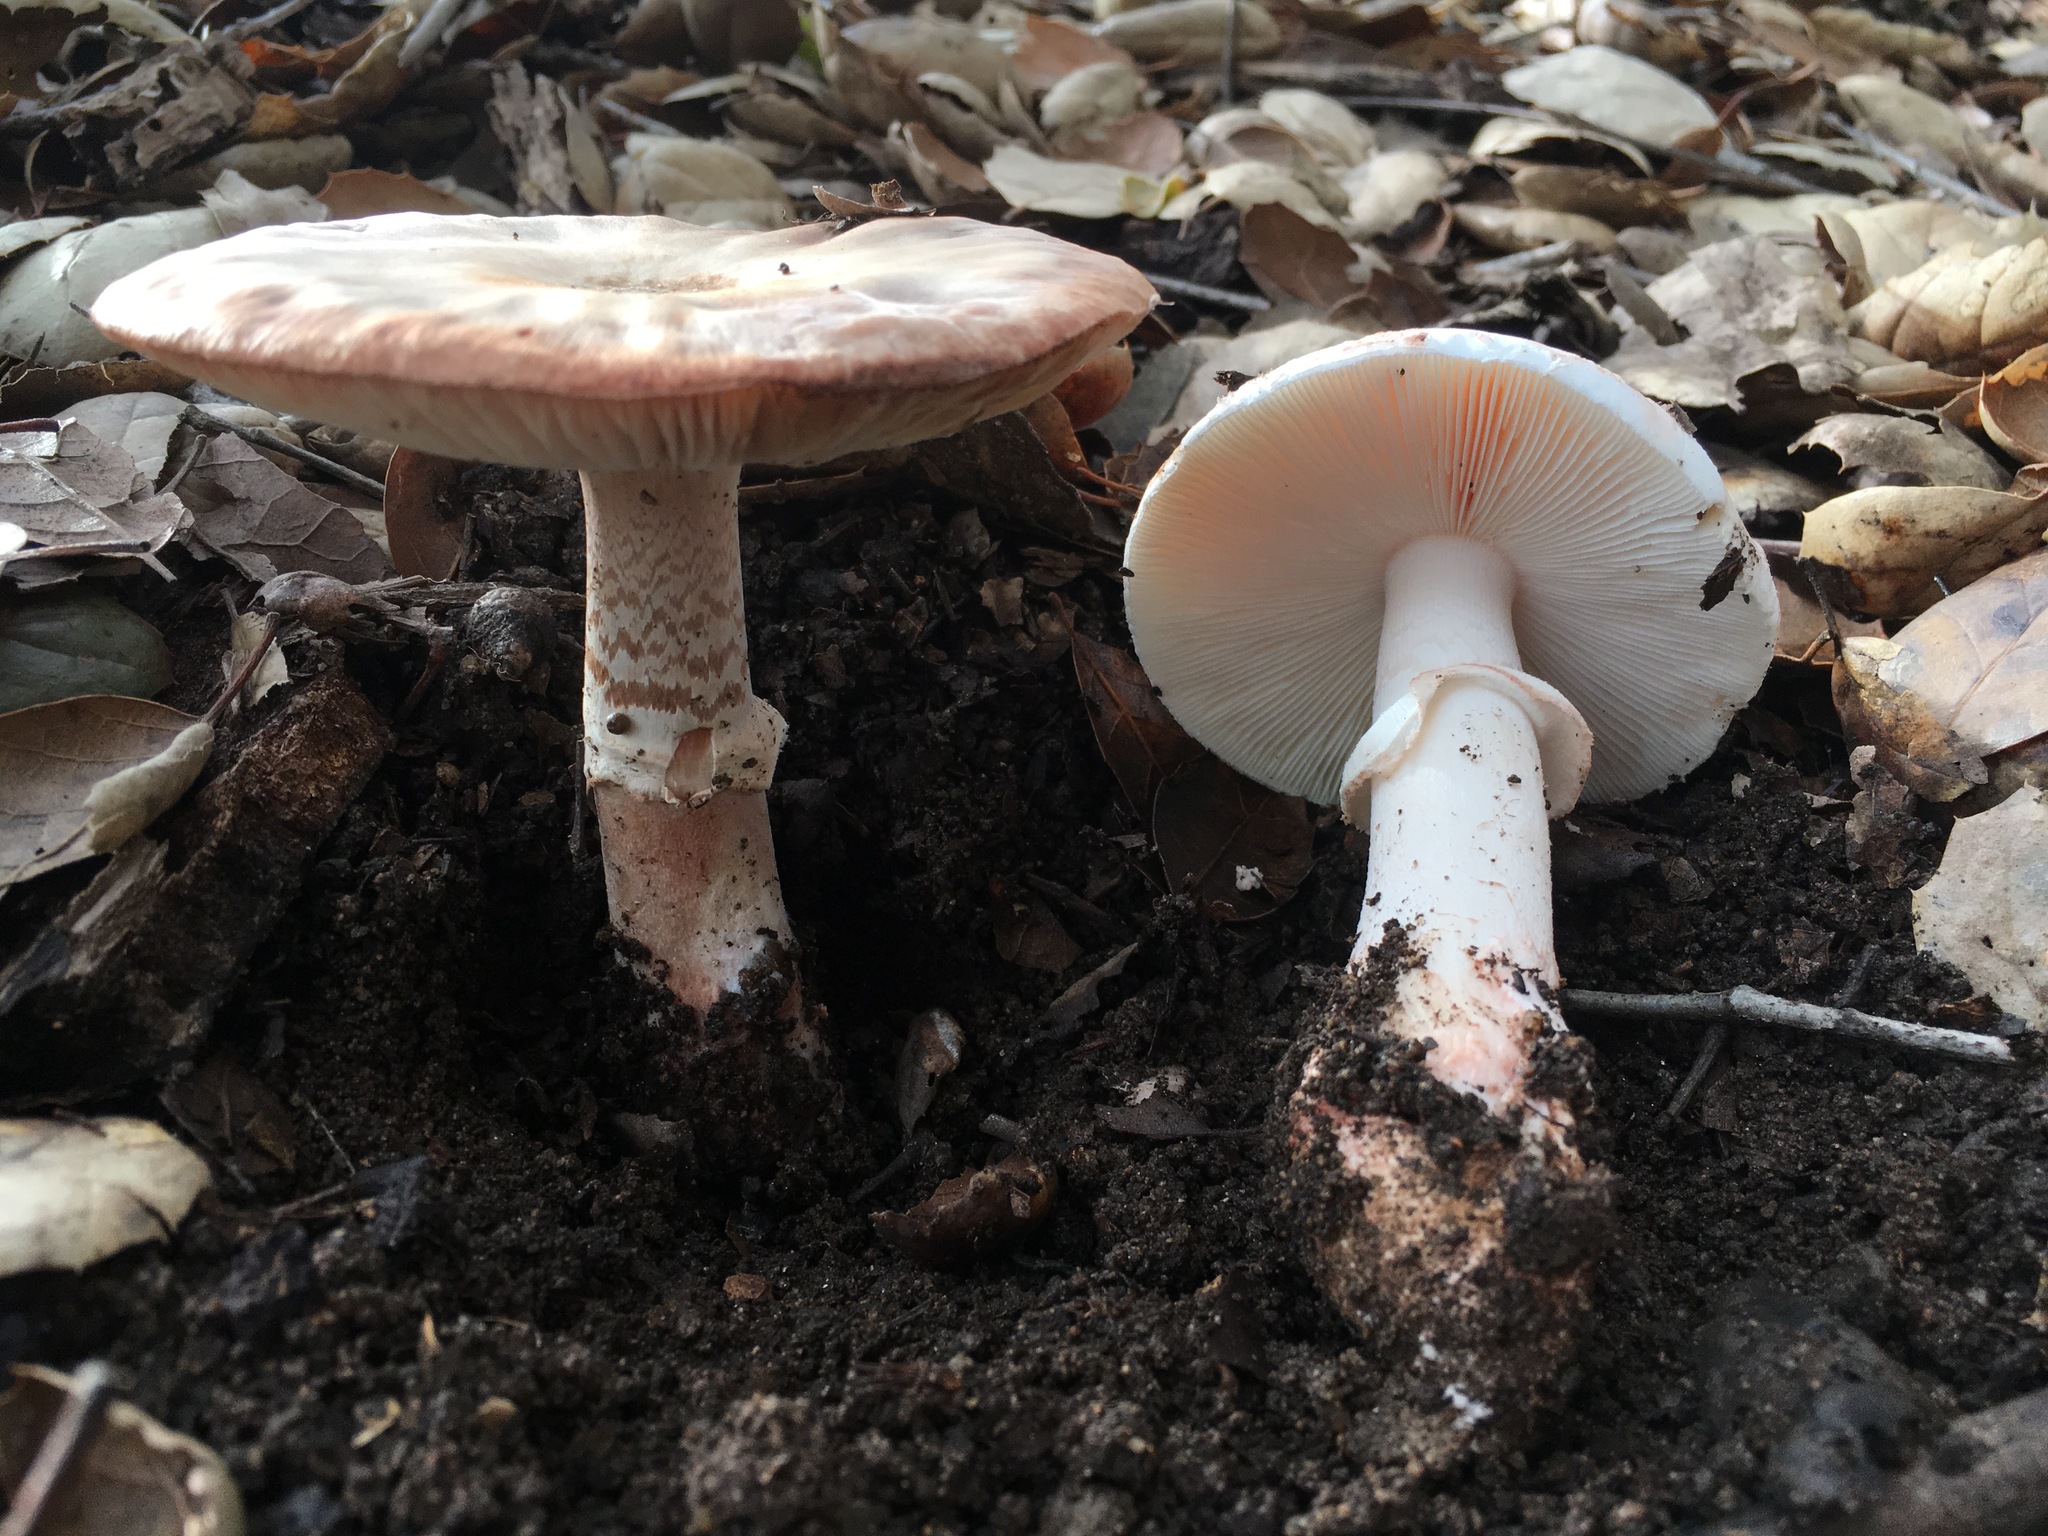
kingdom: Fungi
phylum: Basidiomycota
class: Agaricomycetes
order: Agaricales
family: Amanitaceae
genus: Amanita
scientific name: Amanita novinupta
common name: Blushing bride
